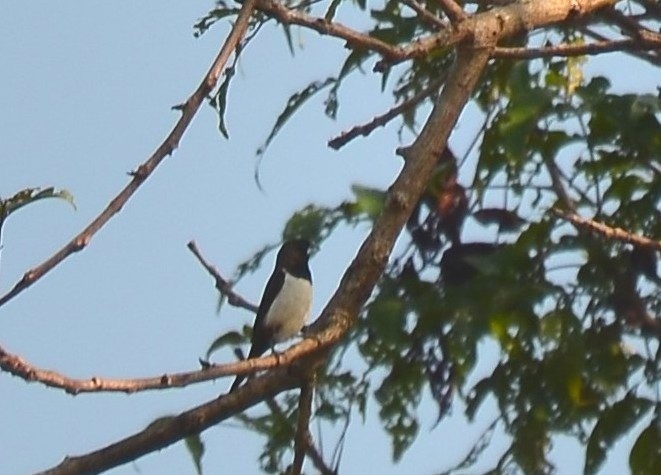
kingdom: Animalia
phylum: Chordata
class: Aves
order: Passeriformes
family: Estrildidae
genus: Lonchura
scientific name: Lonchura striata
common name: White-rumped munia
